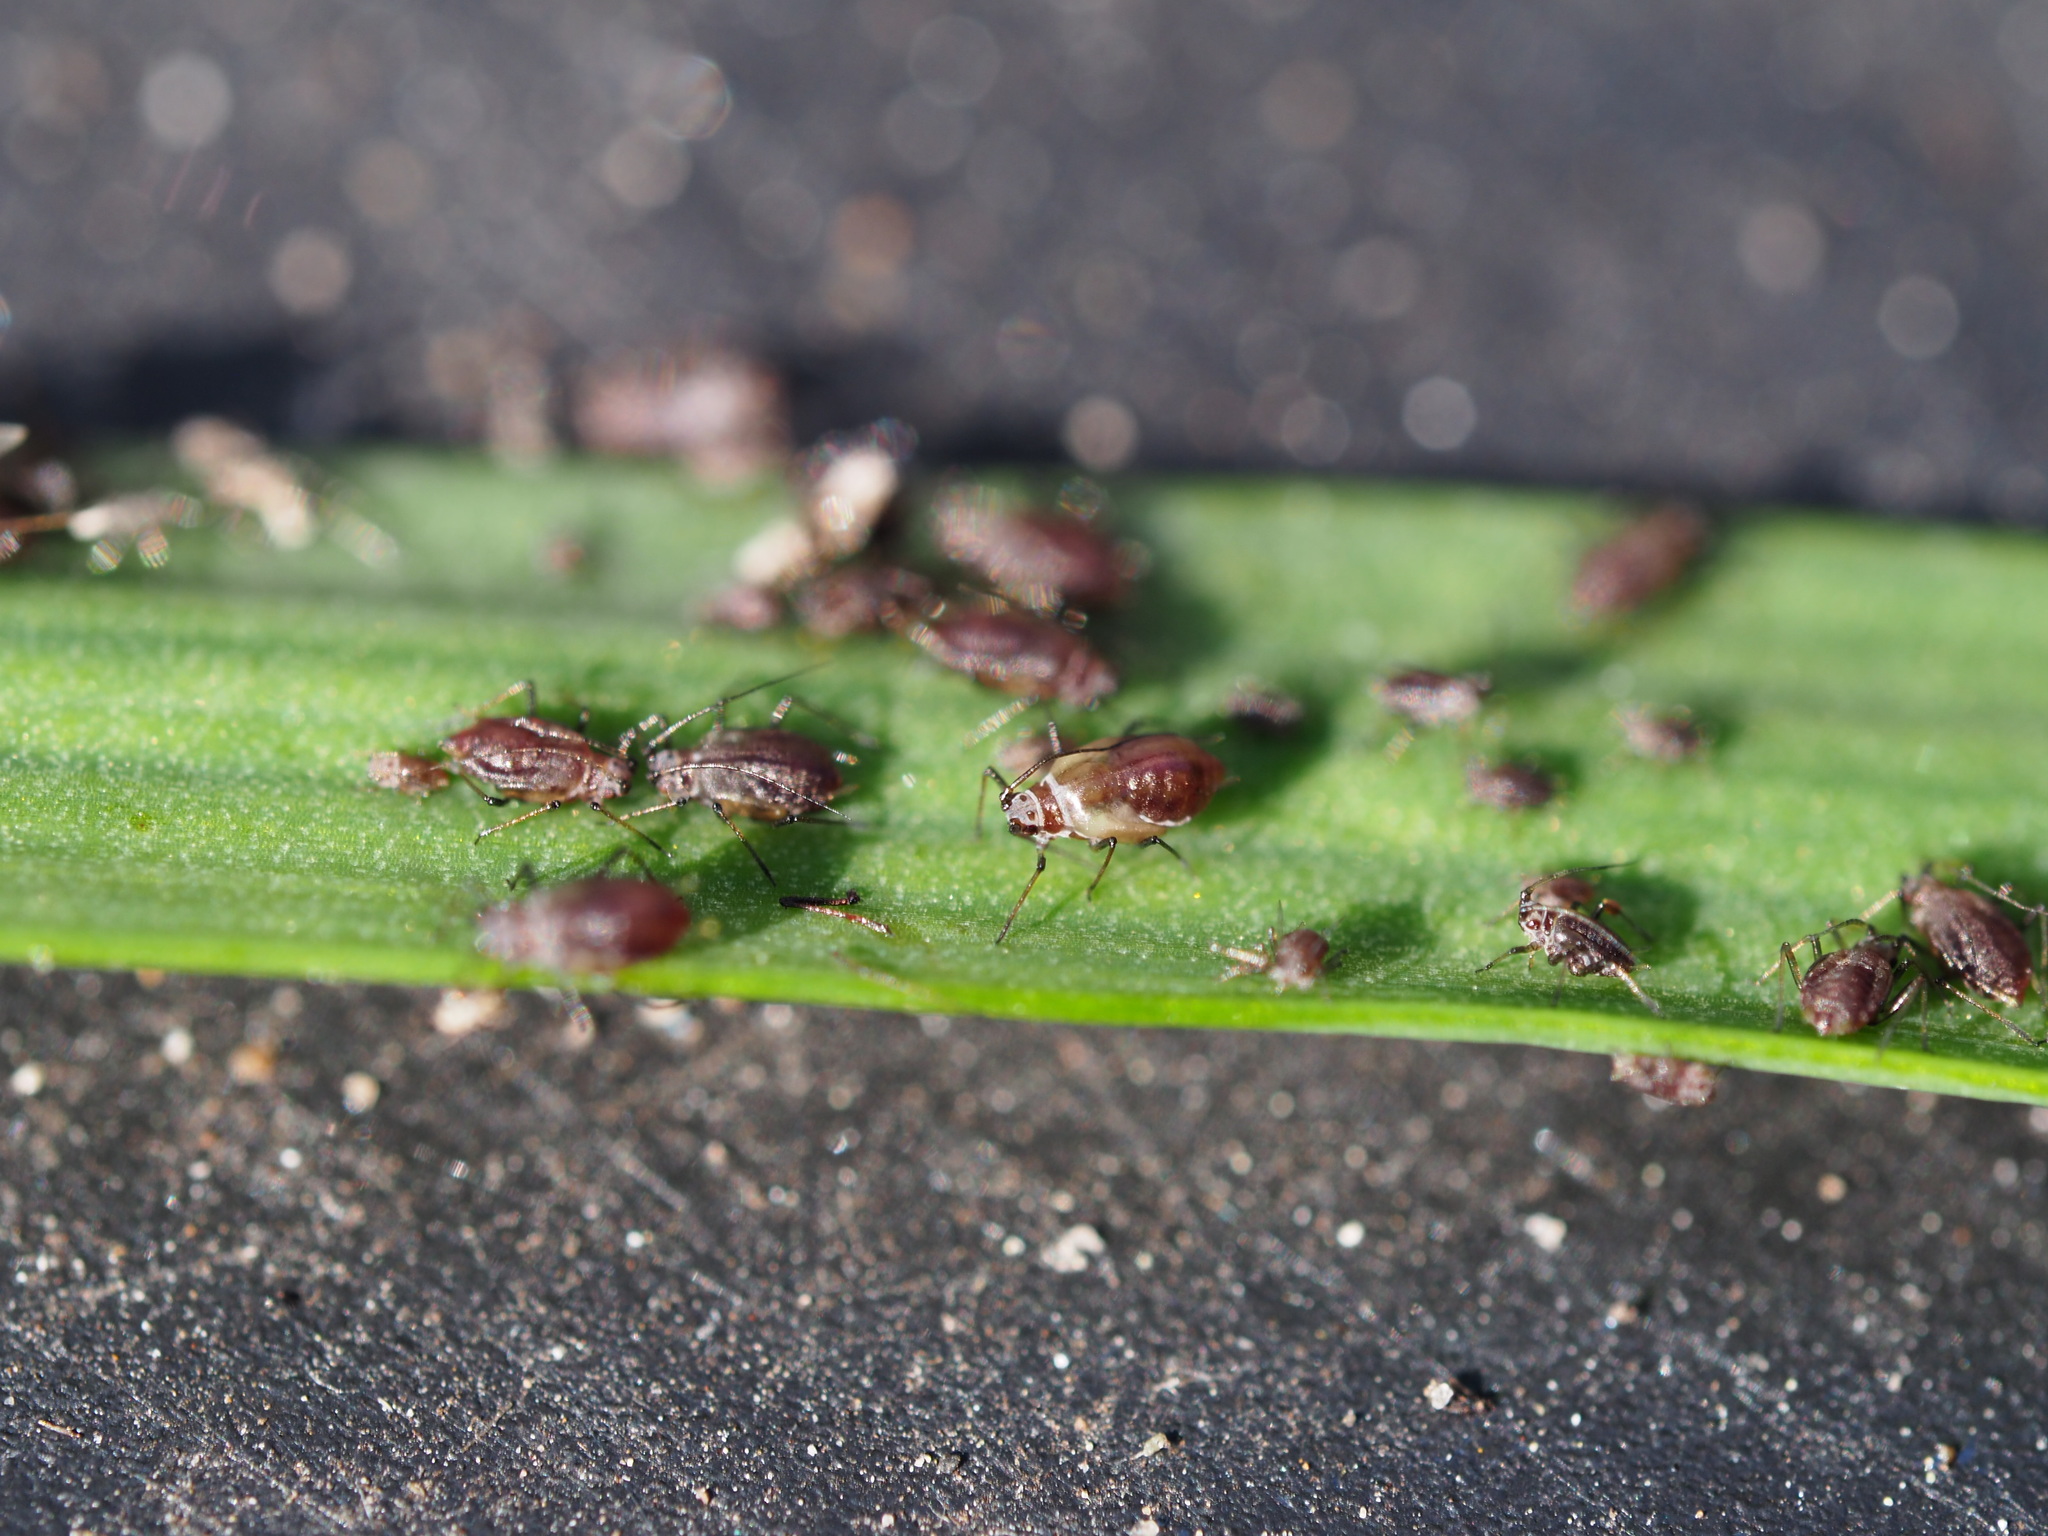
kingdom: Animalia
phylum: Arthropoda
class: Insecta
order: Hemiptera
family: Aphididae
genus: Neotoxoptera
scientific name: Neotoxoptera formosana
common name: Onion aphid
